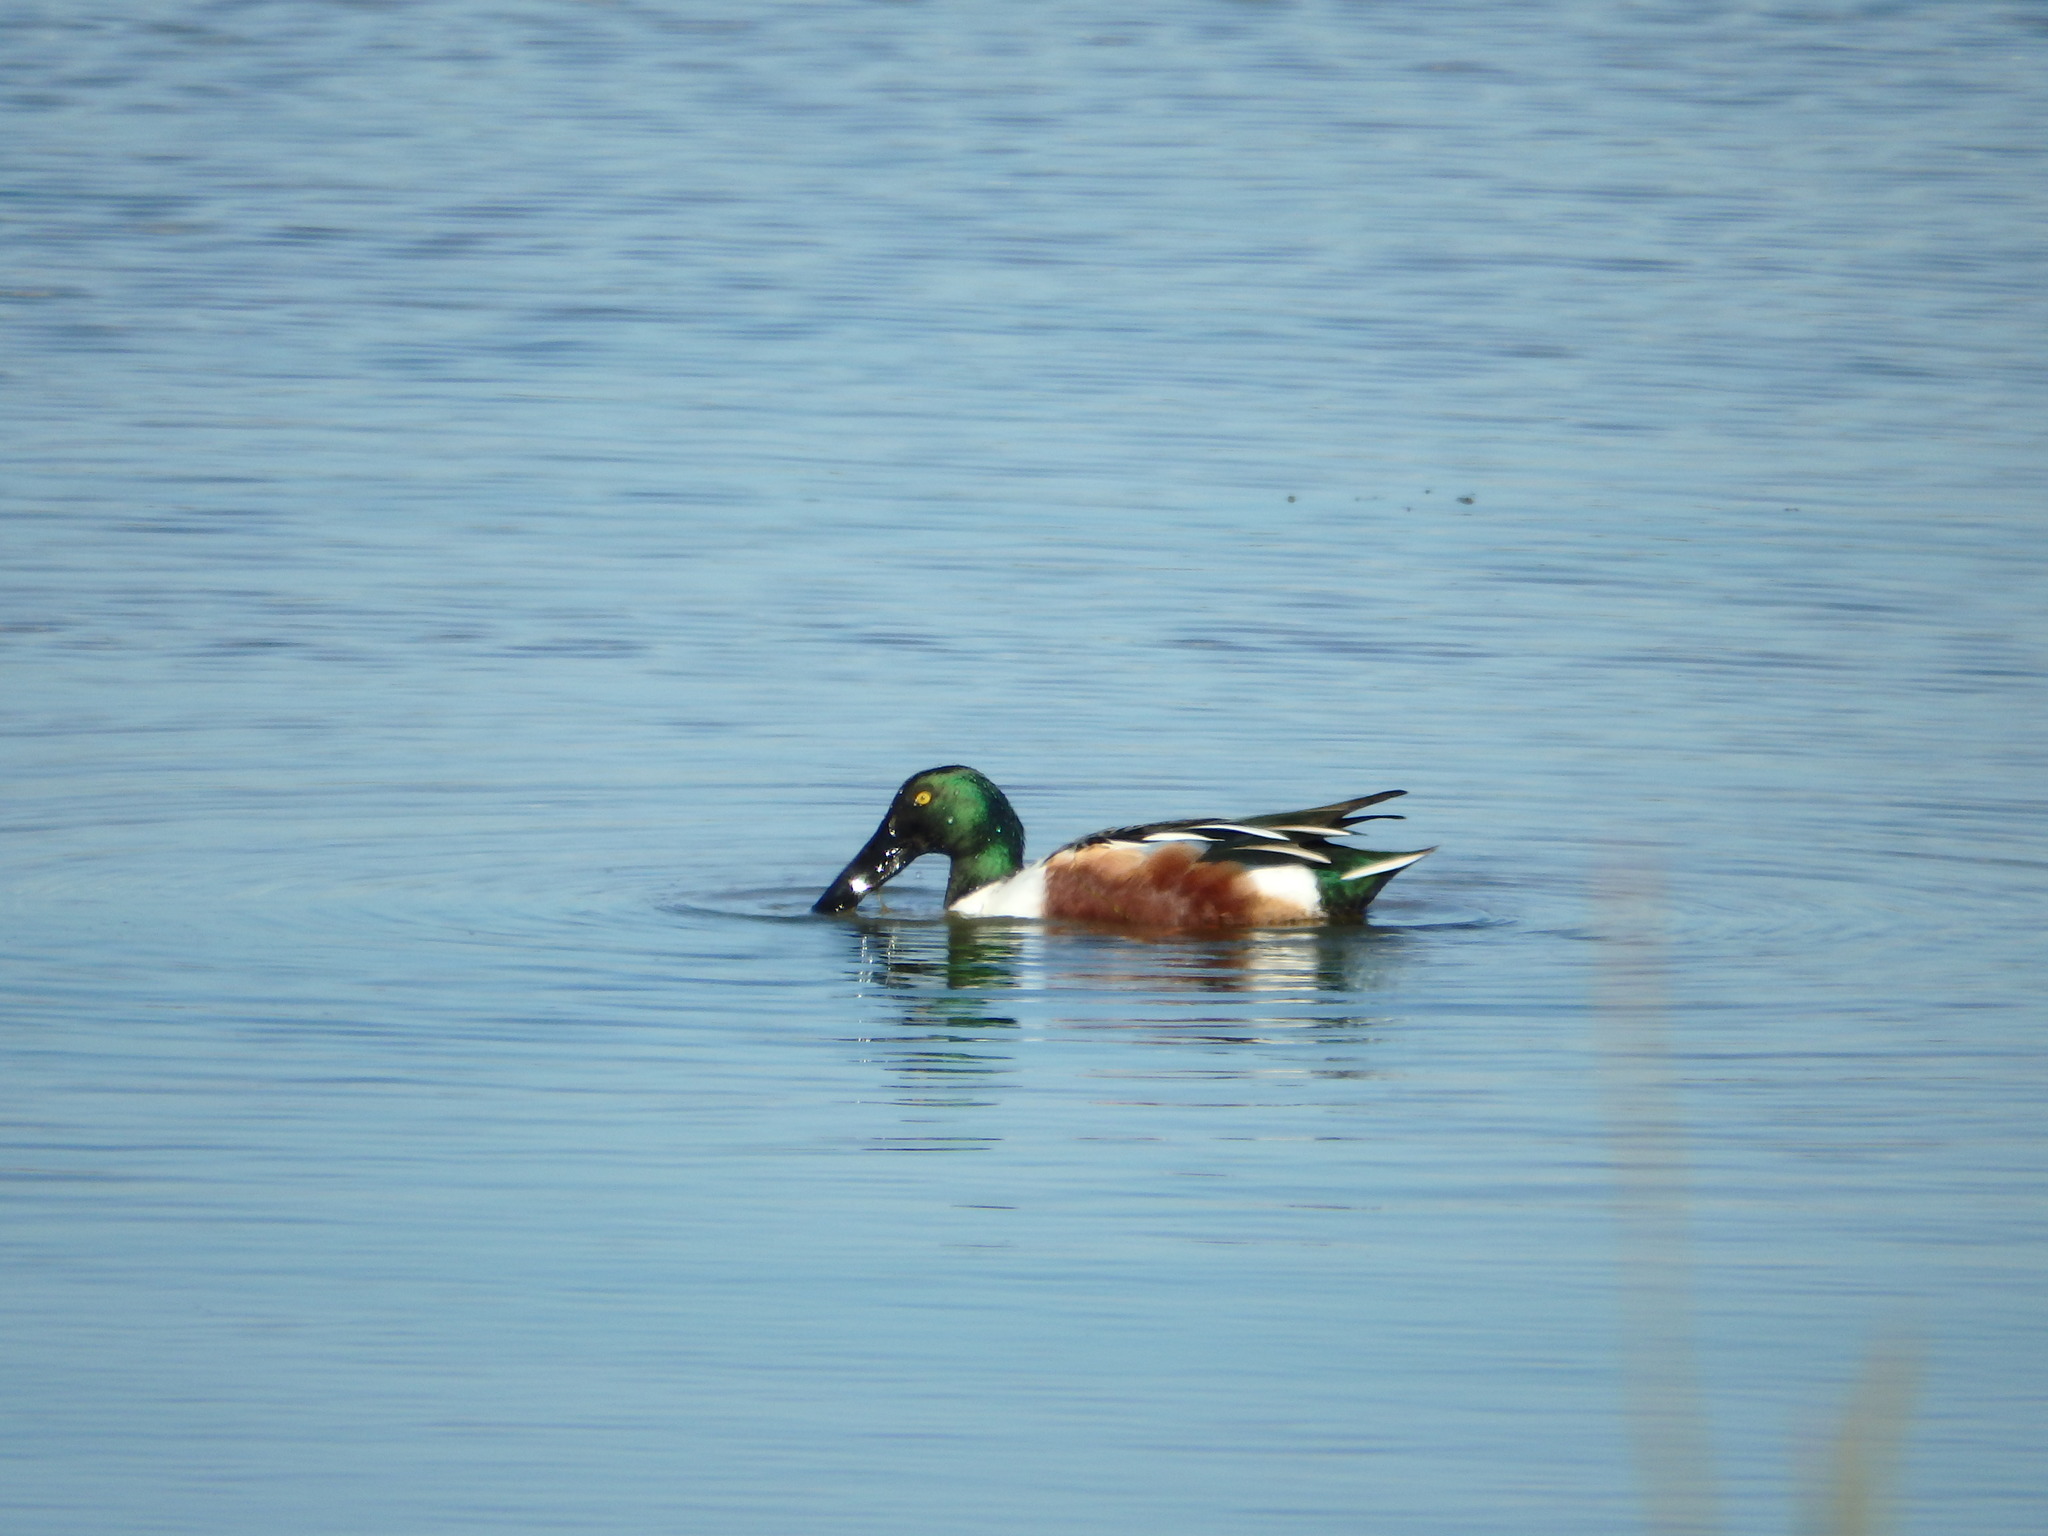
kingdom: Animalia
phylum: Chordata
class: Aves
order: Anseriformes
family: Anatidae
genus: Spatula
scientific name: Spatula clypeata
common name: Northern shoveler
